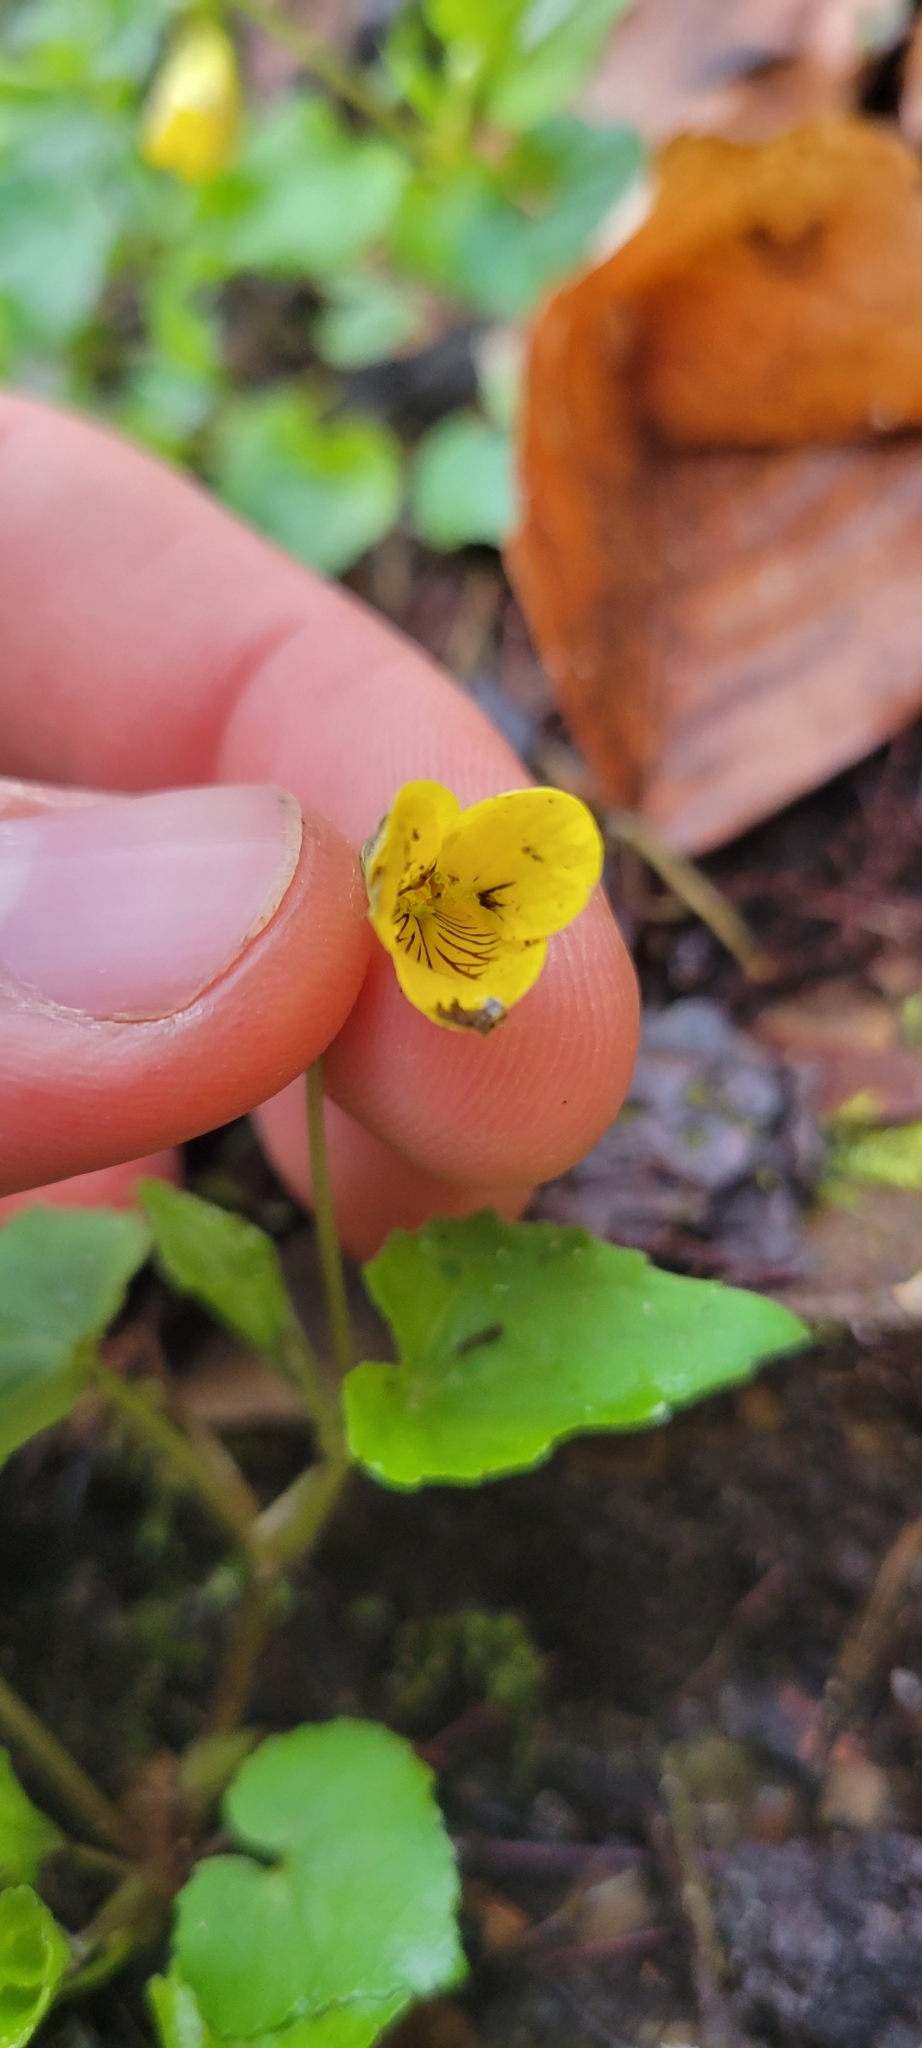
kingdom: Plantae
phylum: Tracheophyta
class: Magnoliopsida
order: Malpighiales
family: Violaceae
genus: Viola
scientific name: Viola eriocarpa
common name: Smooth yellow violet
